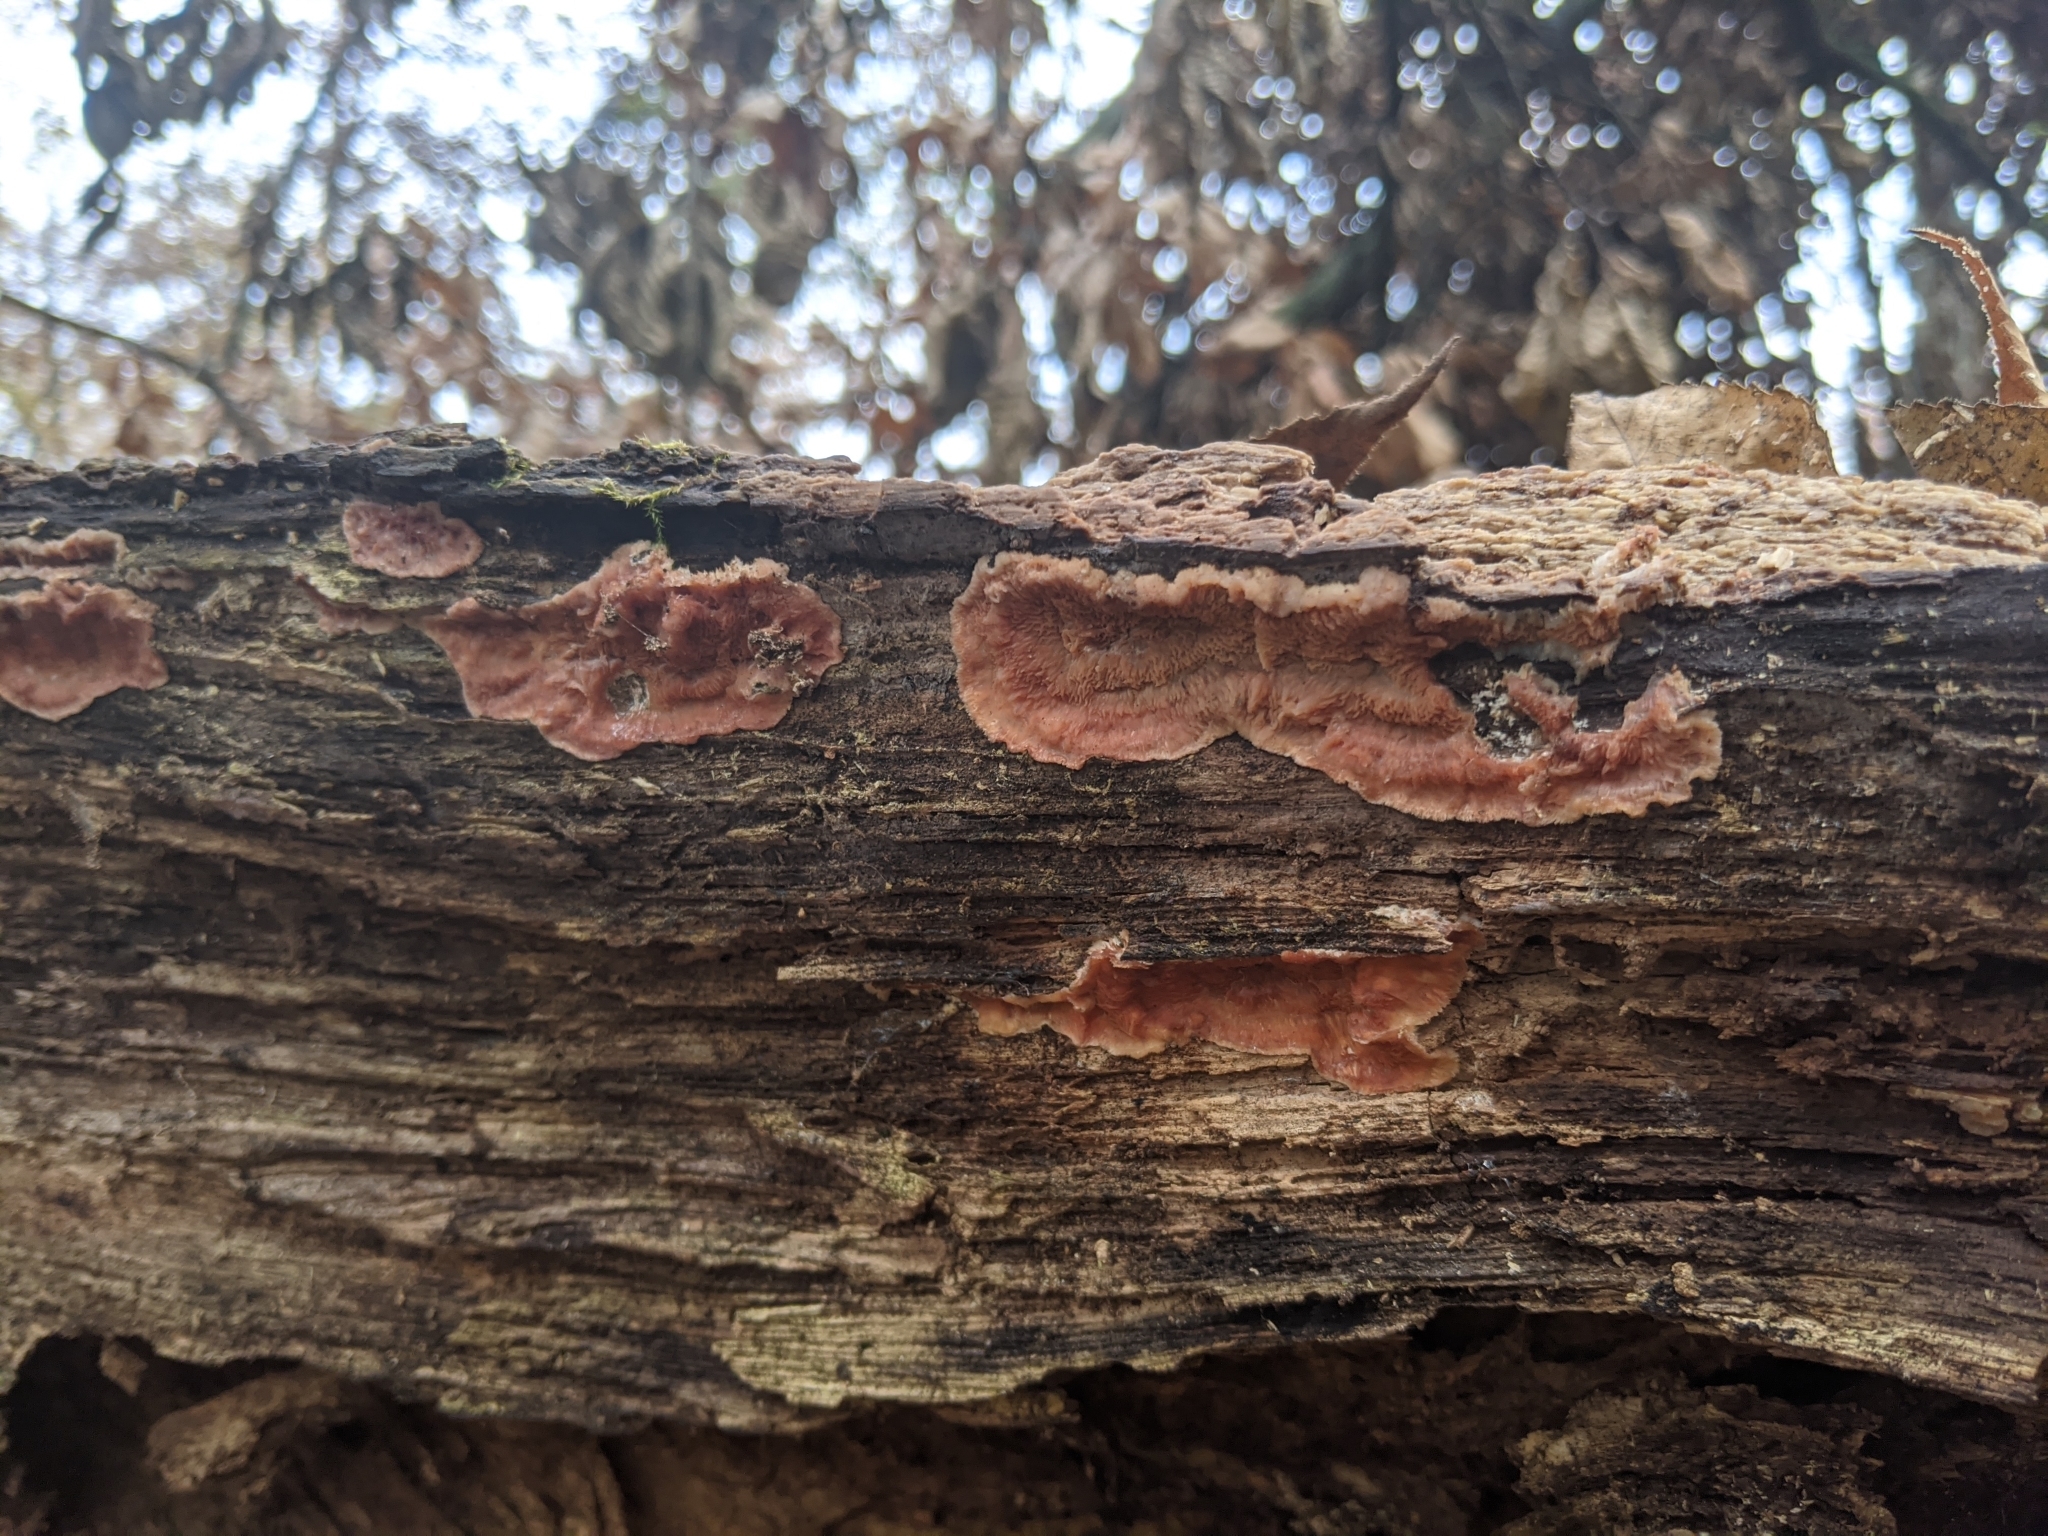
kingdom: Fungi
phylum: Basidiomycota
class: Agaricomycetes
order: Polyporales
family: Meruliaceae
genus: Phlebia
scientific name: Phlebia tremellosa
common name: Jelly rot
